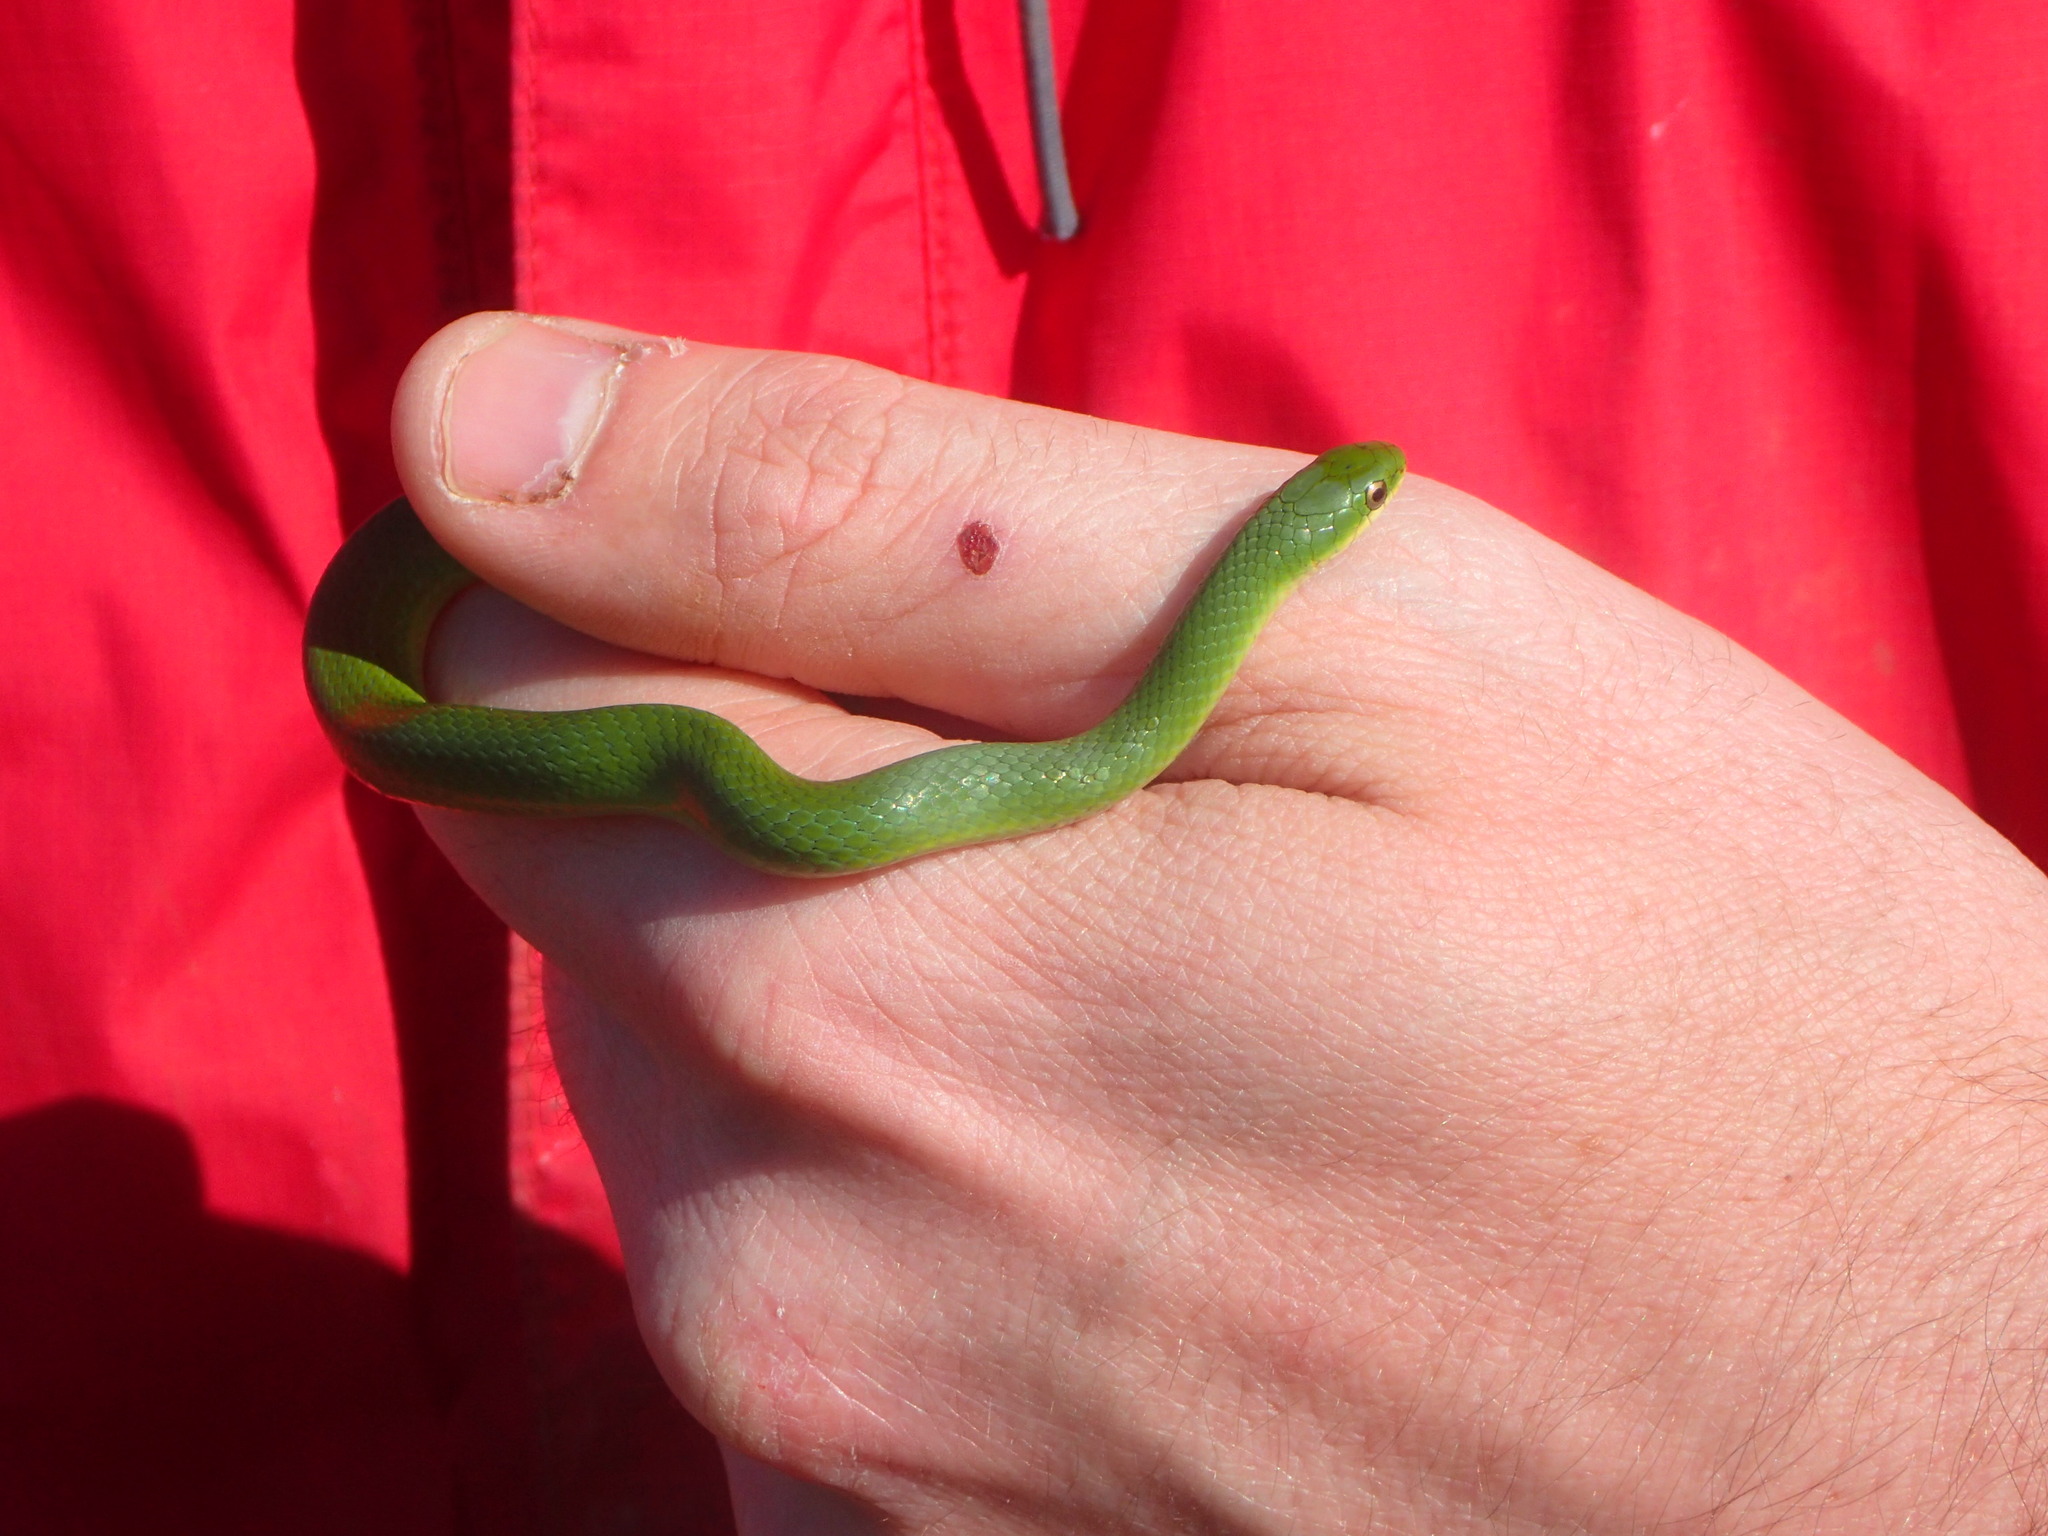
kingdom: Animalia
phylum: Chordata
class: Squamata
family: Colubridae
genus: Opheodrys
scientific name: Opheodrys vernalis
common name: Smooth green snake
